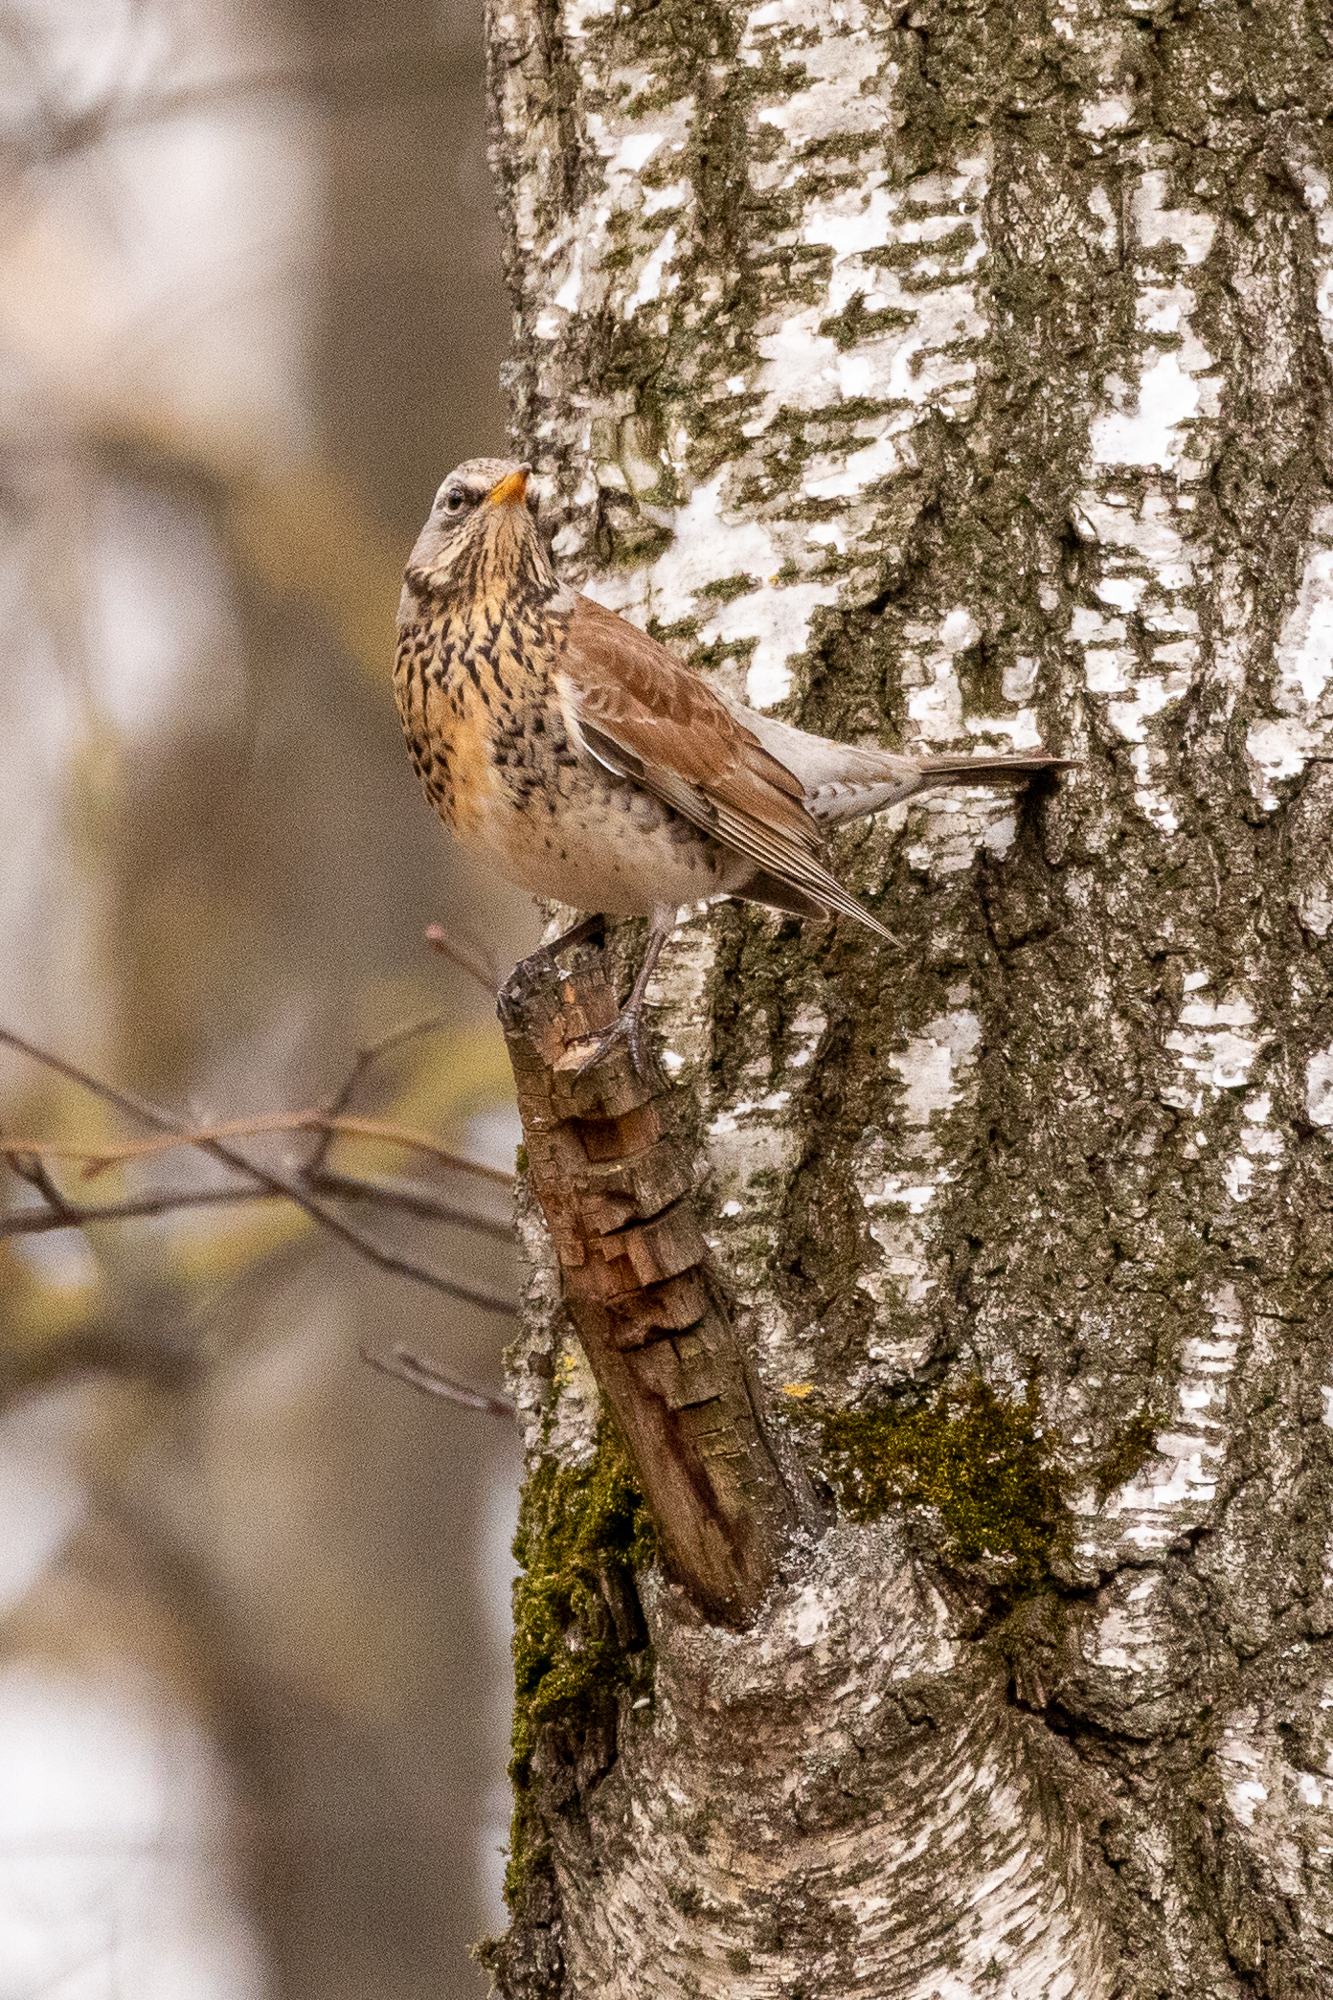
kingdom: Animalia
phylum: Chordata
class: Aves
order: Passeriformes
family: Turdidae
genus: Turdus
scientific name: Turdus pilaris
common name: Fieldfare
